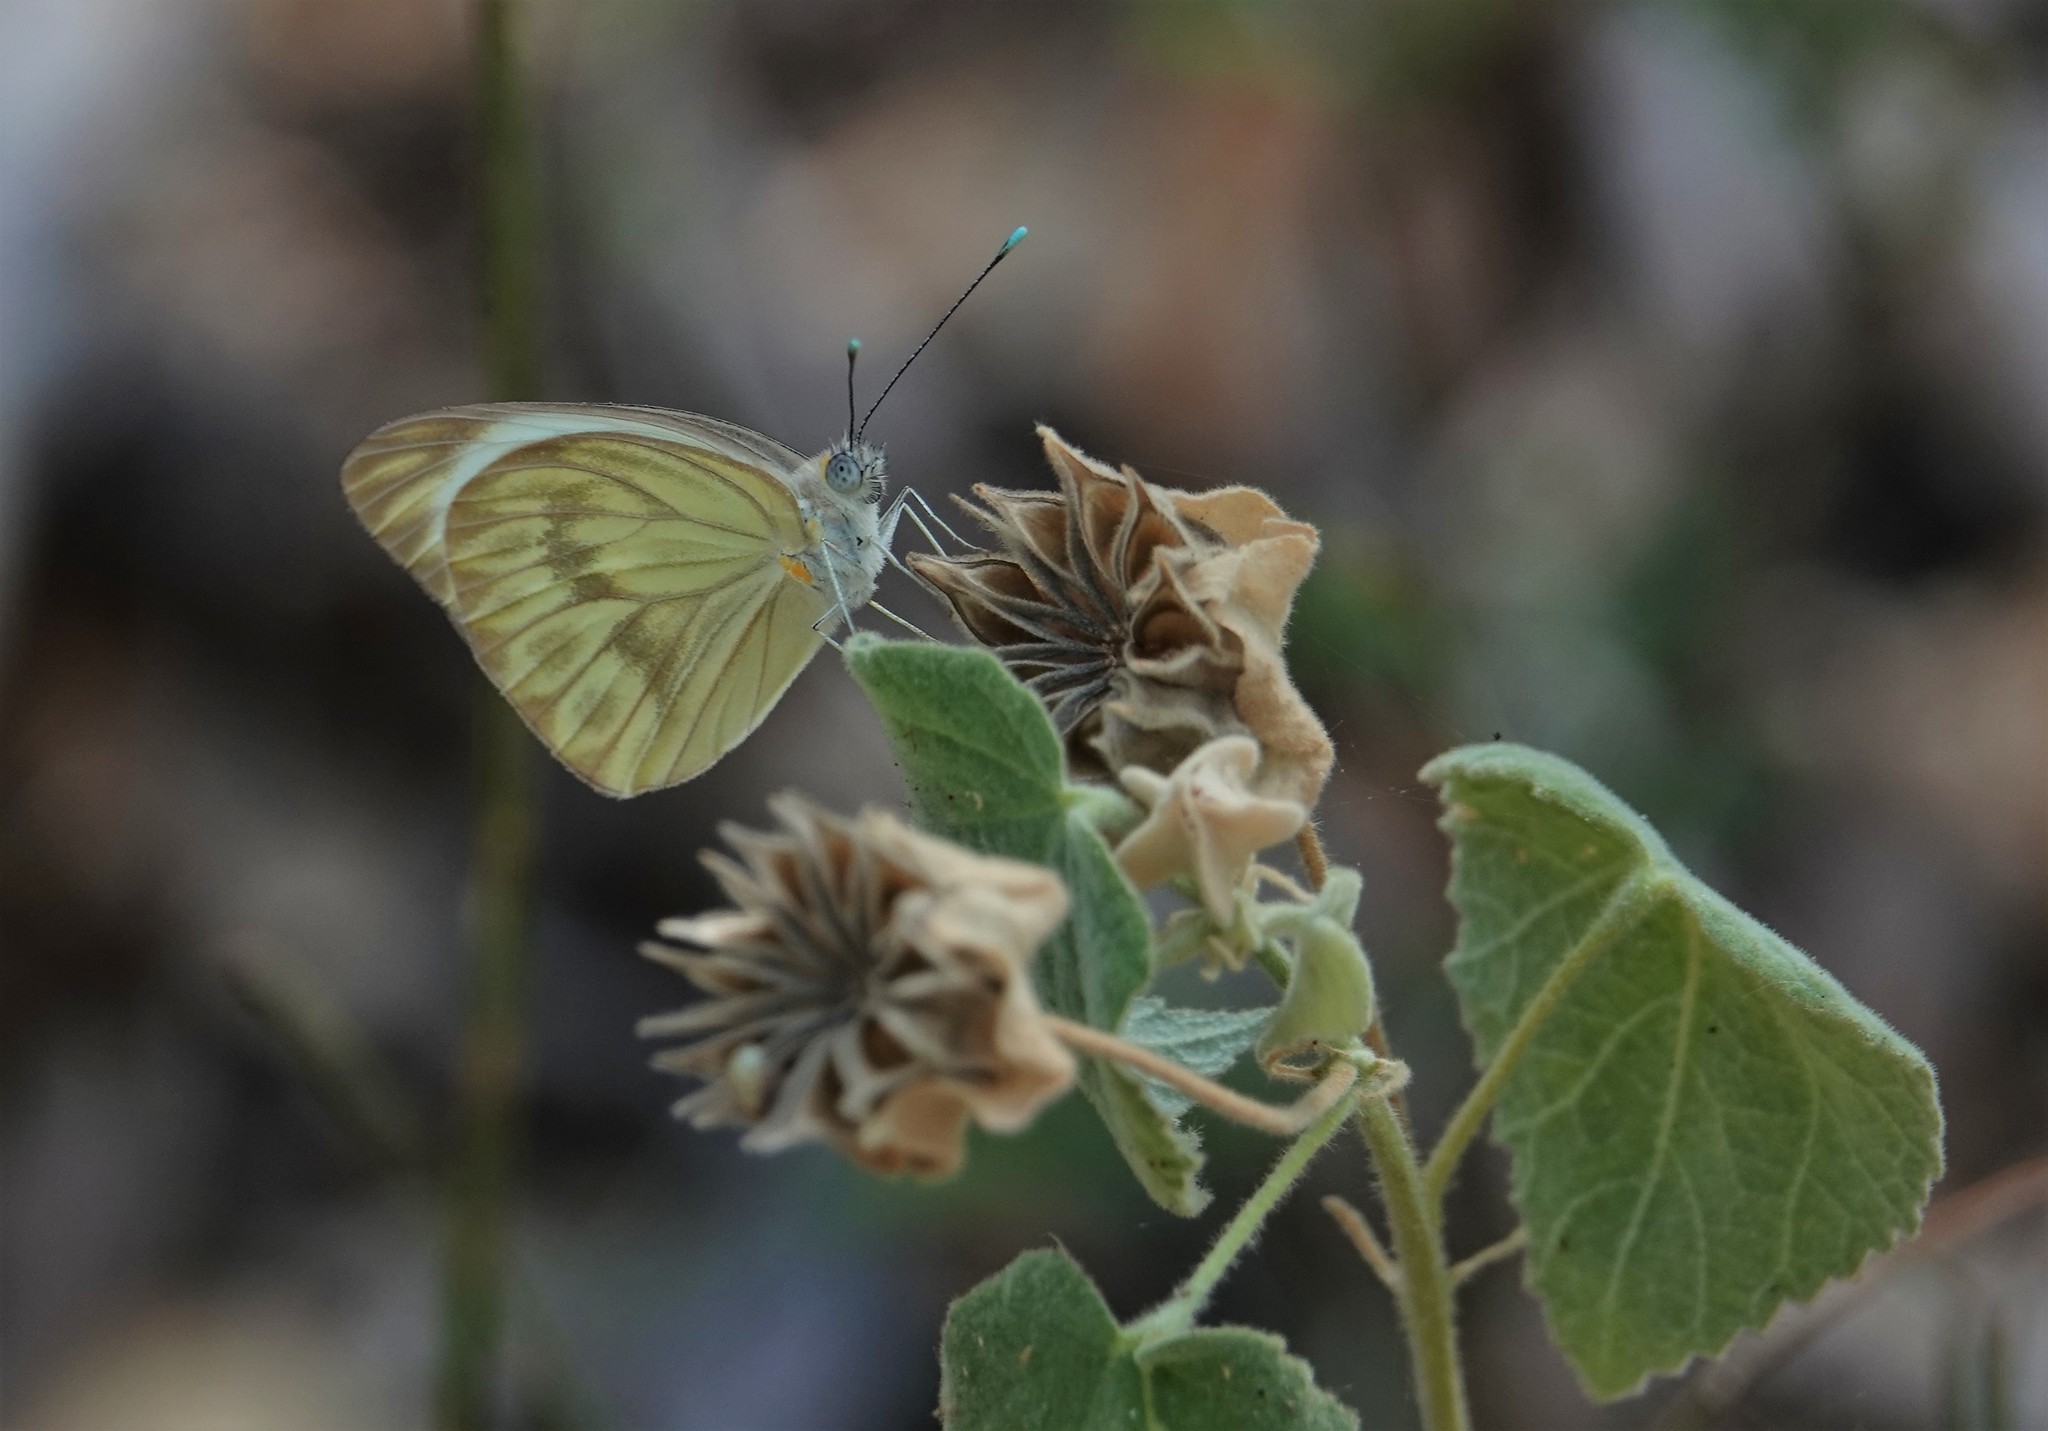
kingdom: Animalia
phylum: Arthropoda
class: Insecta
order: Lepidoptera
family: Pieridae
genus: Ascia
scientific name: Ascia monuste
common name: Great southern white
